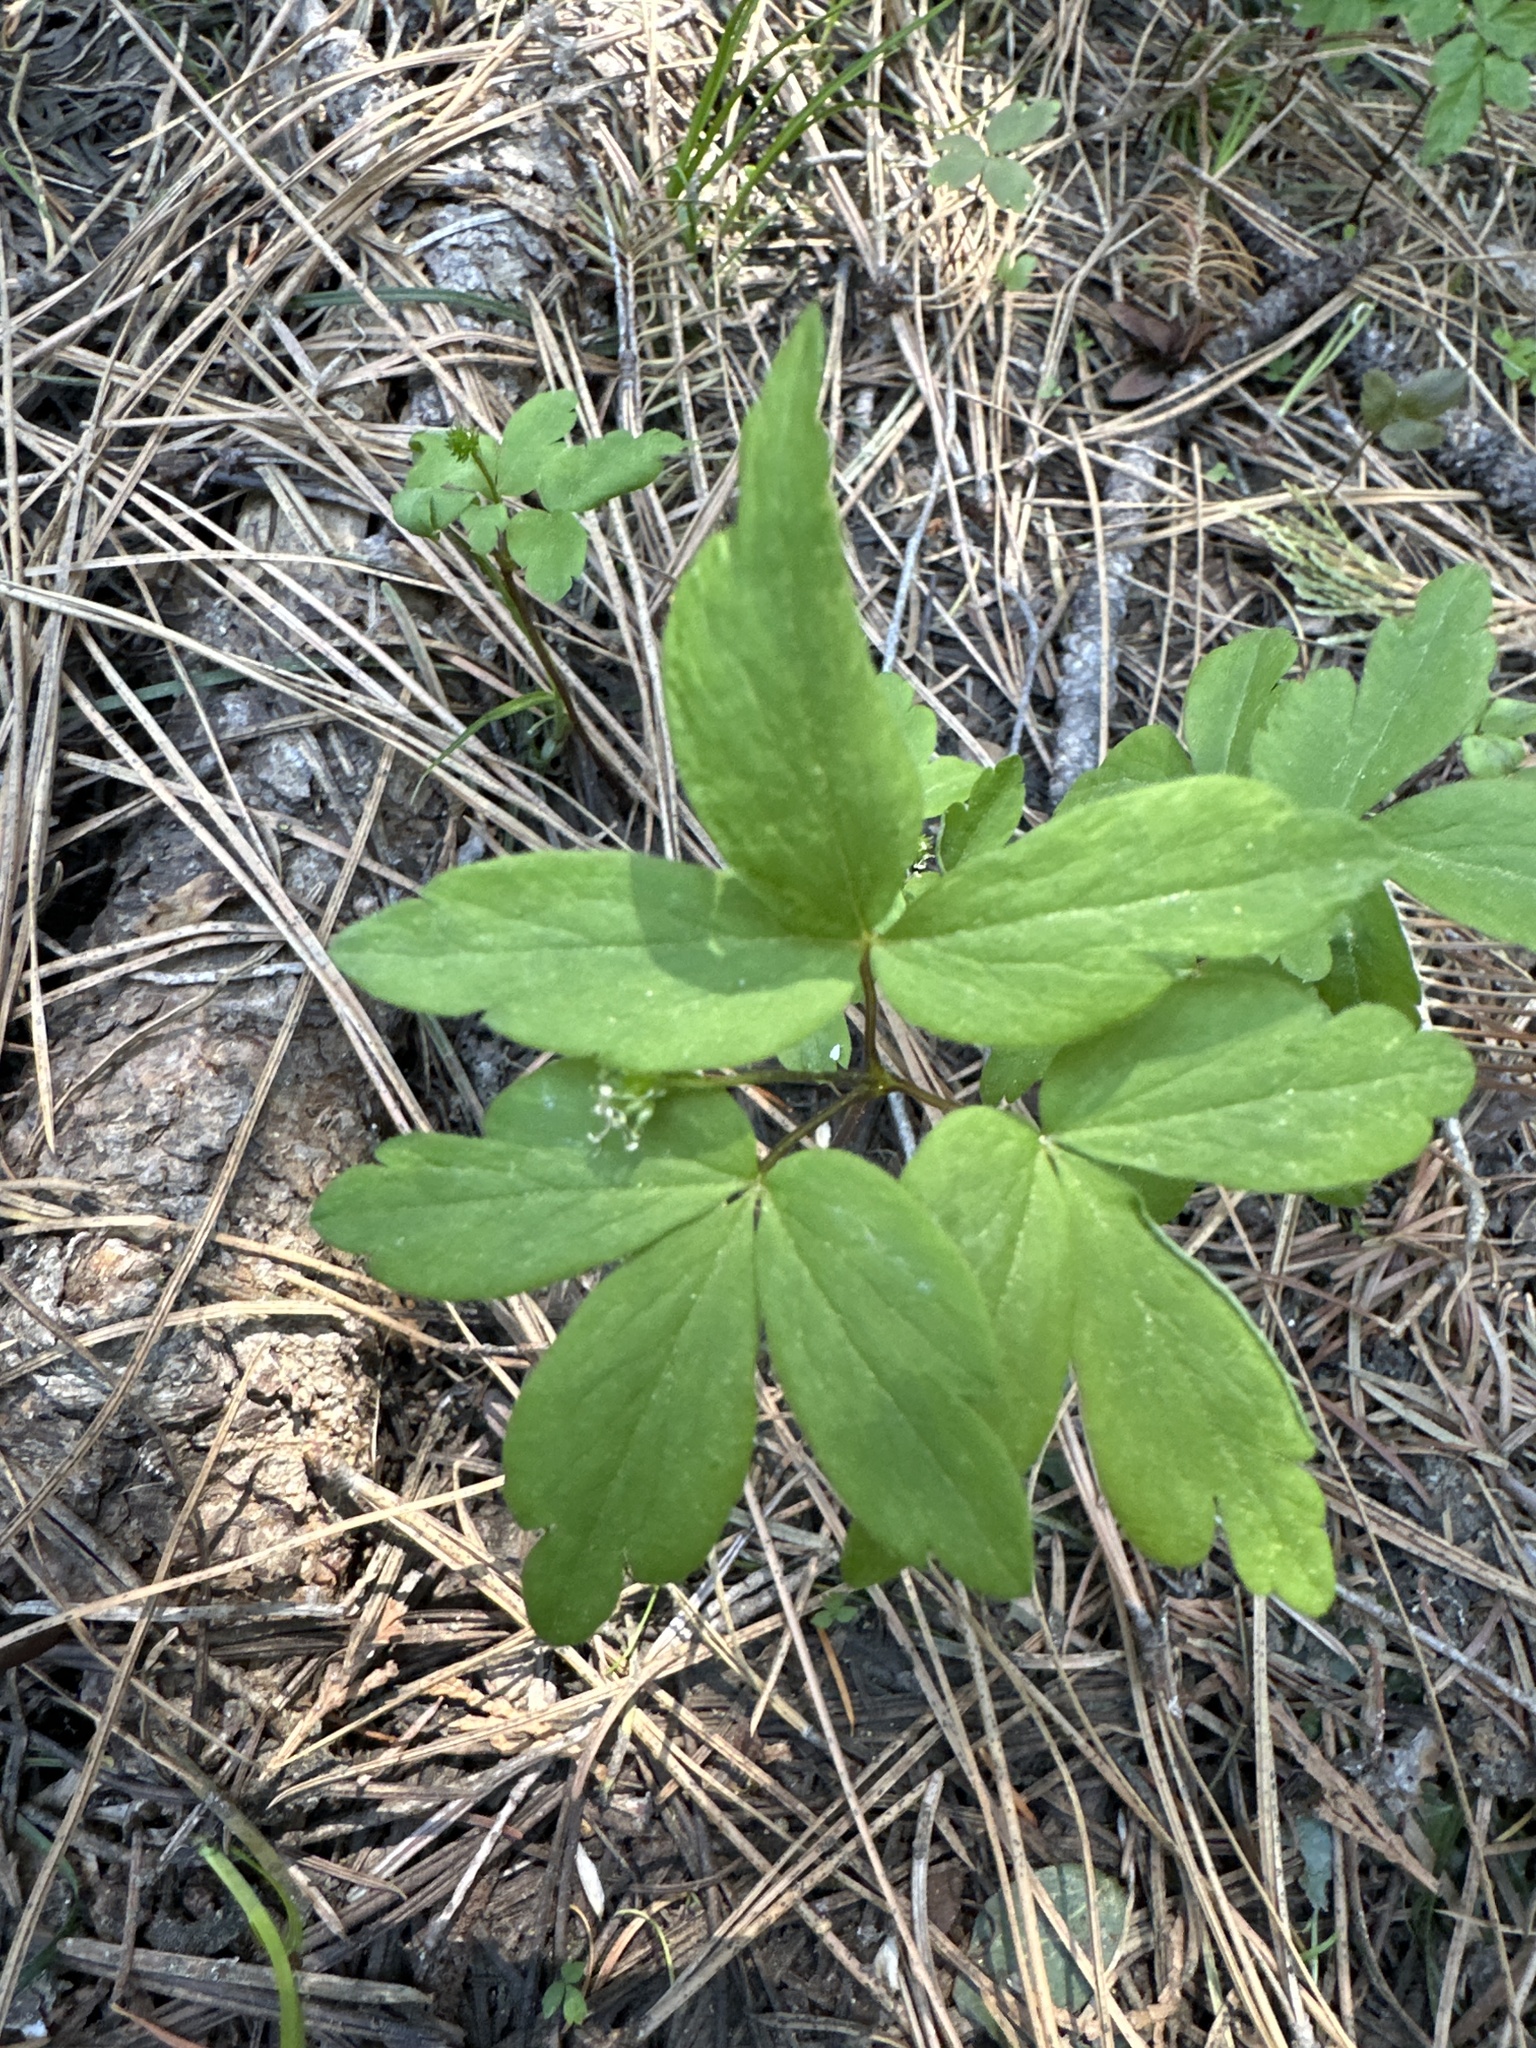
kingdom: Plantae
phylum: Tracheophyta
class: Magnoliopsida
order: Ranunculales
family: Ranunculaceae
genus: Anemone
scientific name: Anemone
